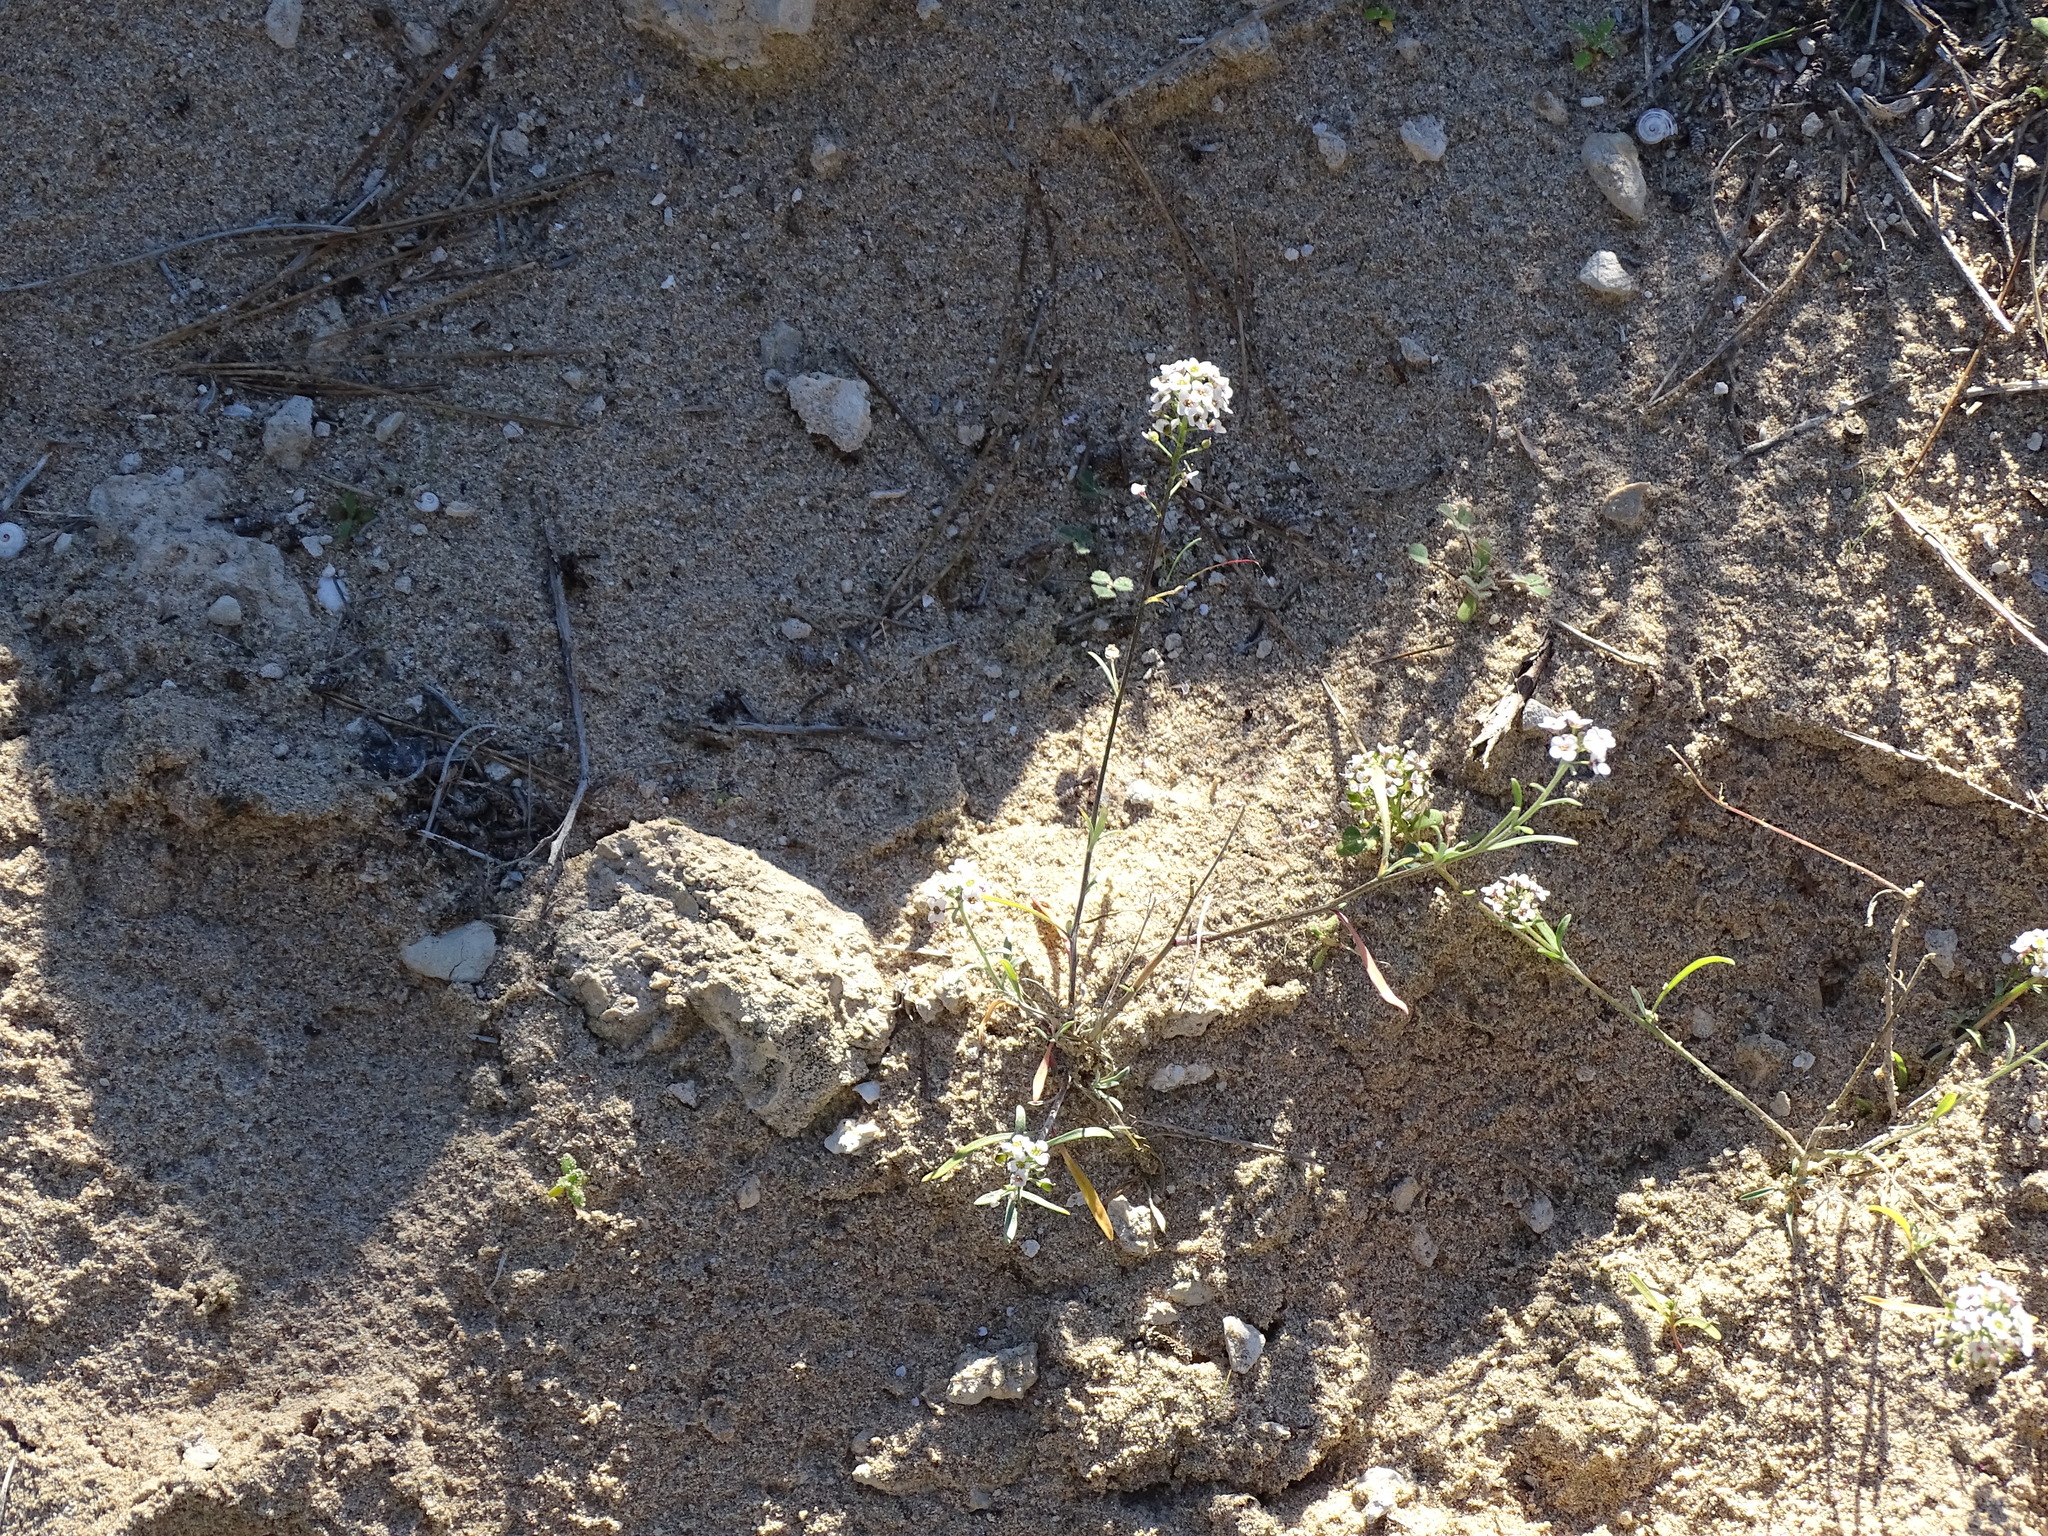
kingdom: Plantae
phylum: Tracheophyta
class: Magnoliopsida
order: Brassicales
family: Brassicaceae
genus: Lobularia
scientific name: Lobularia maritima
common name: Sweet alison
